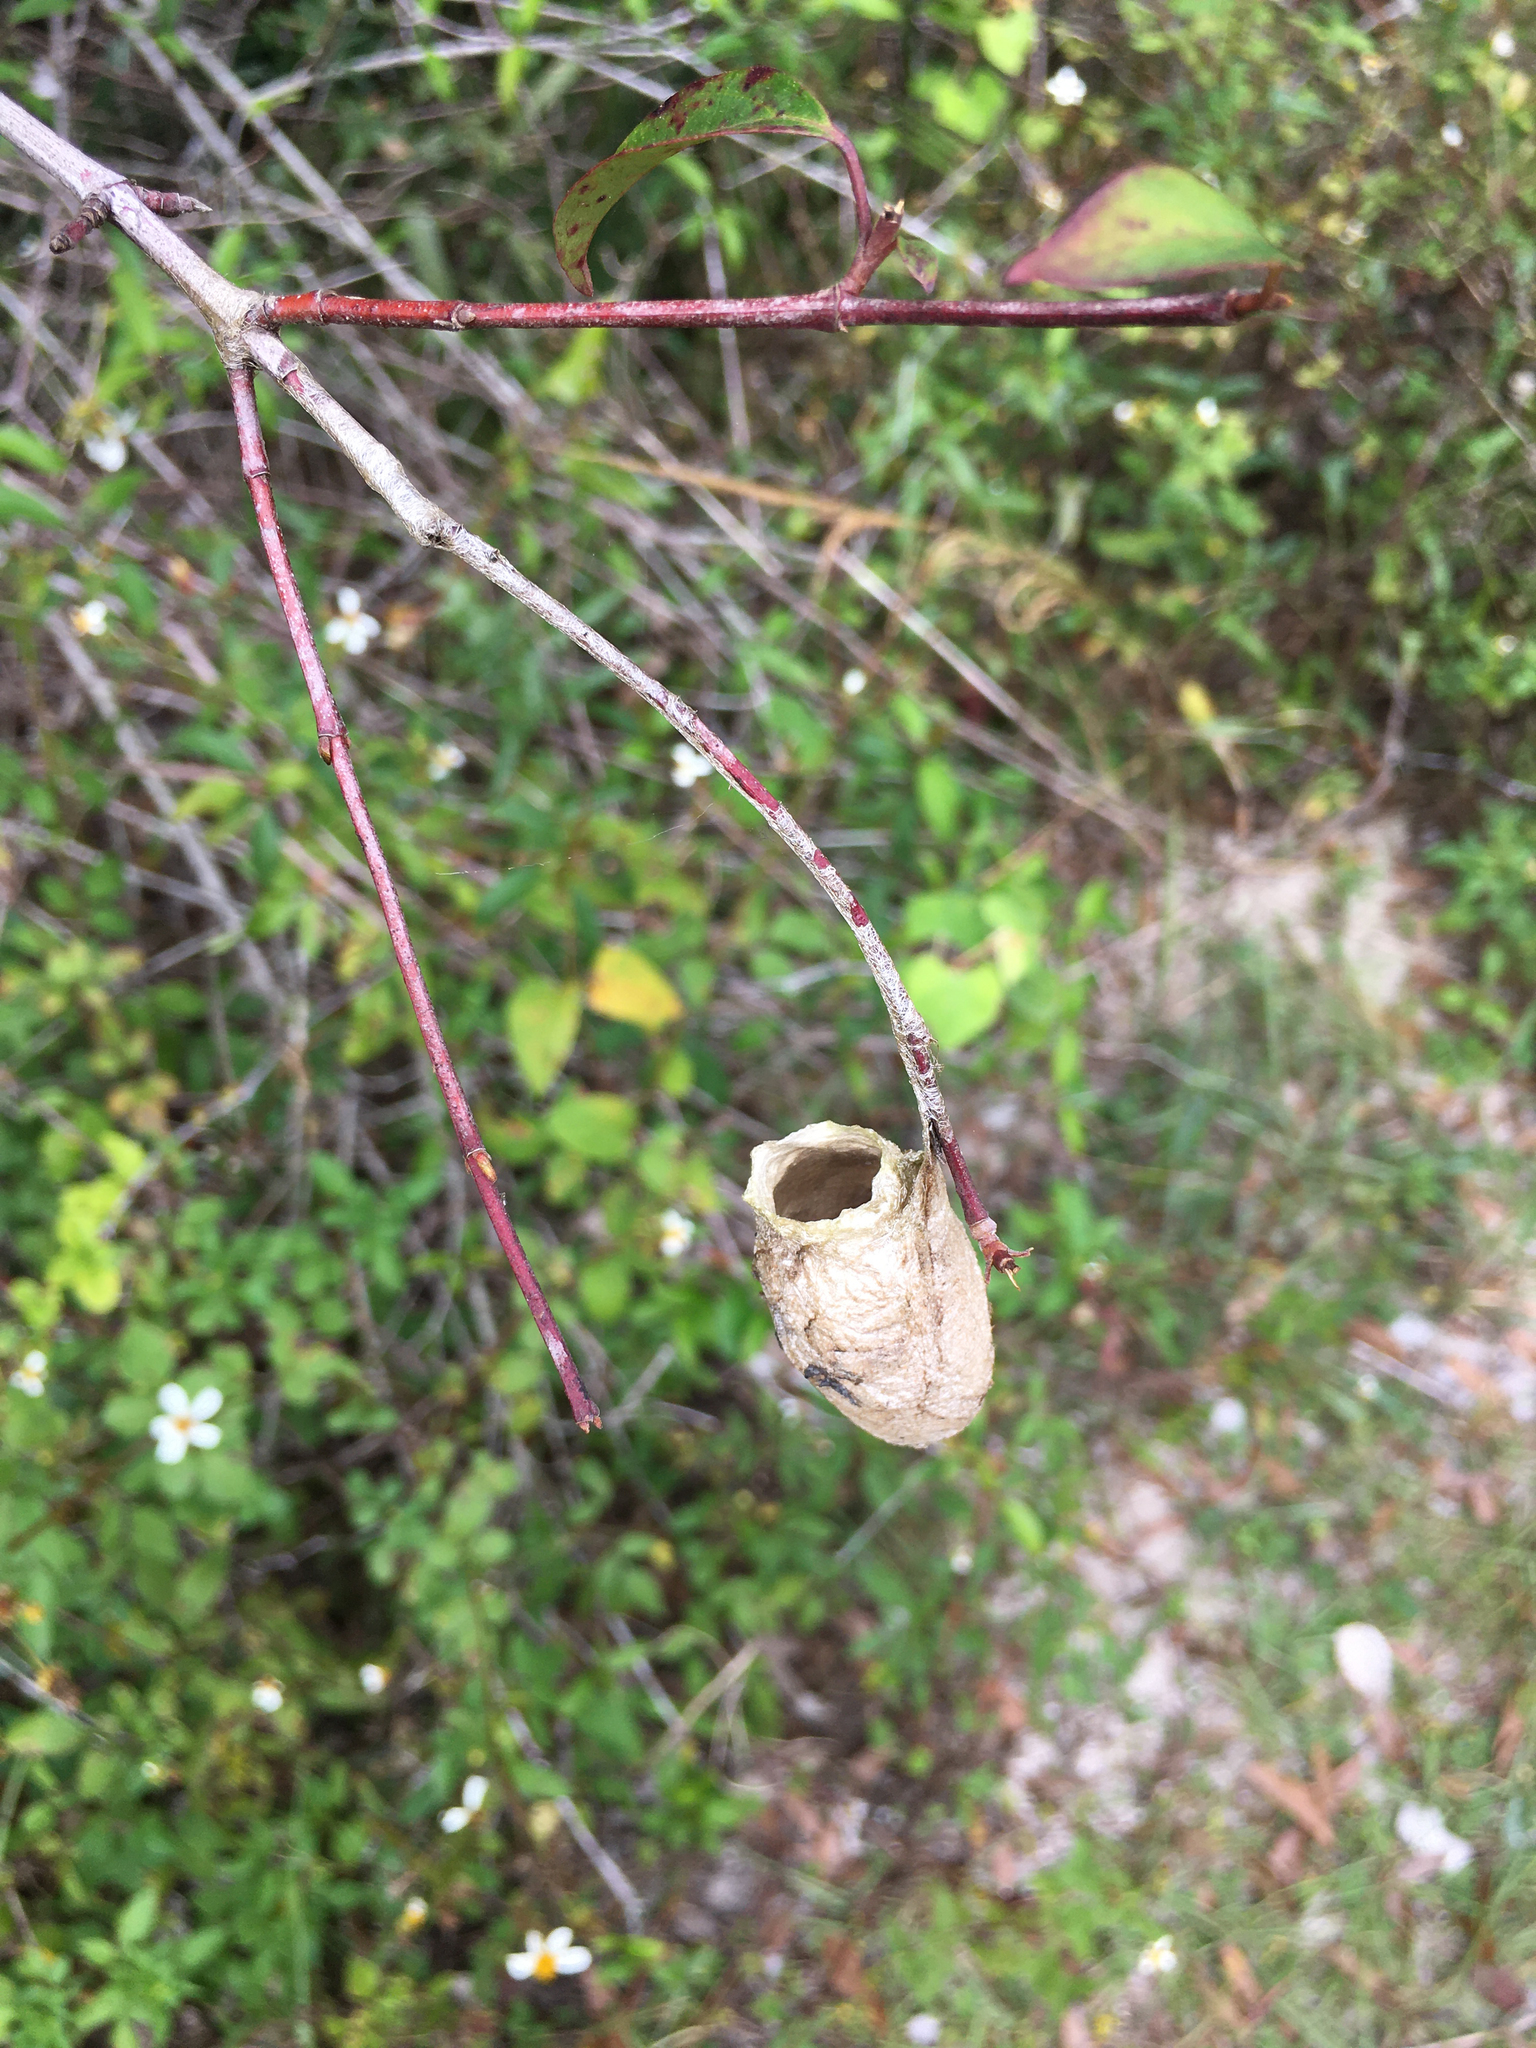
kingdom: Animalia
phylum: Arthropoda
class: Insecta
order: Lepidoptera
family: Saturniidae
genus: Antheraea
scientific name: Antheraea polyphemus
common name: Polyphemus moth
